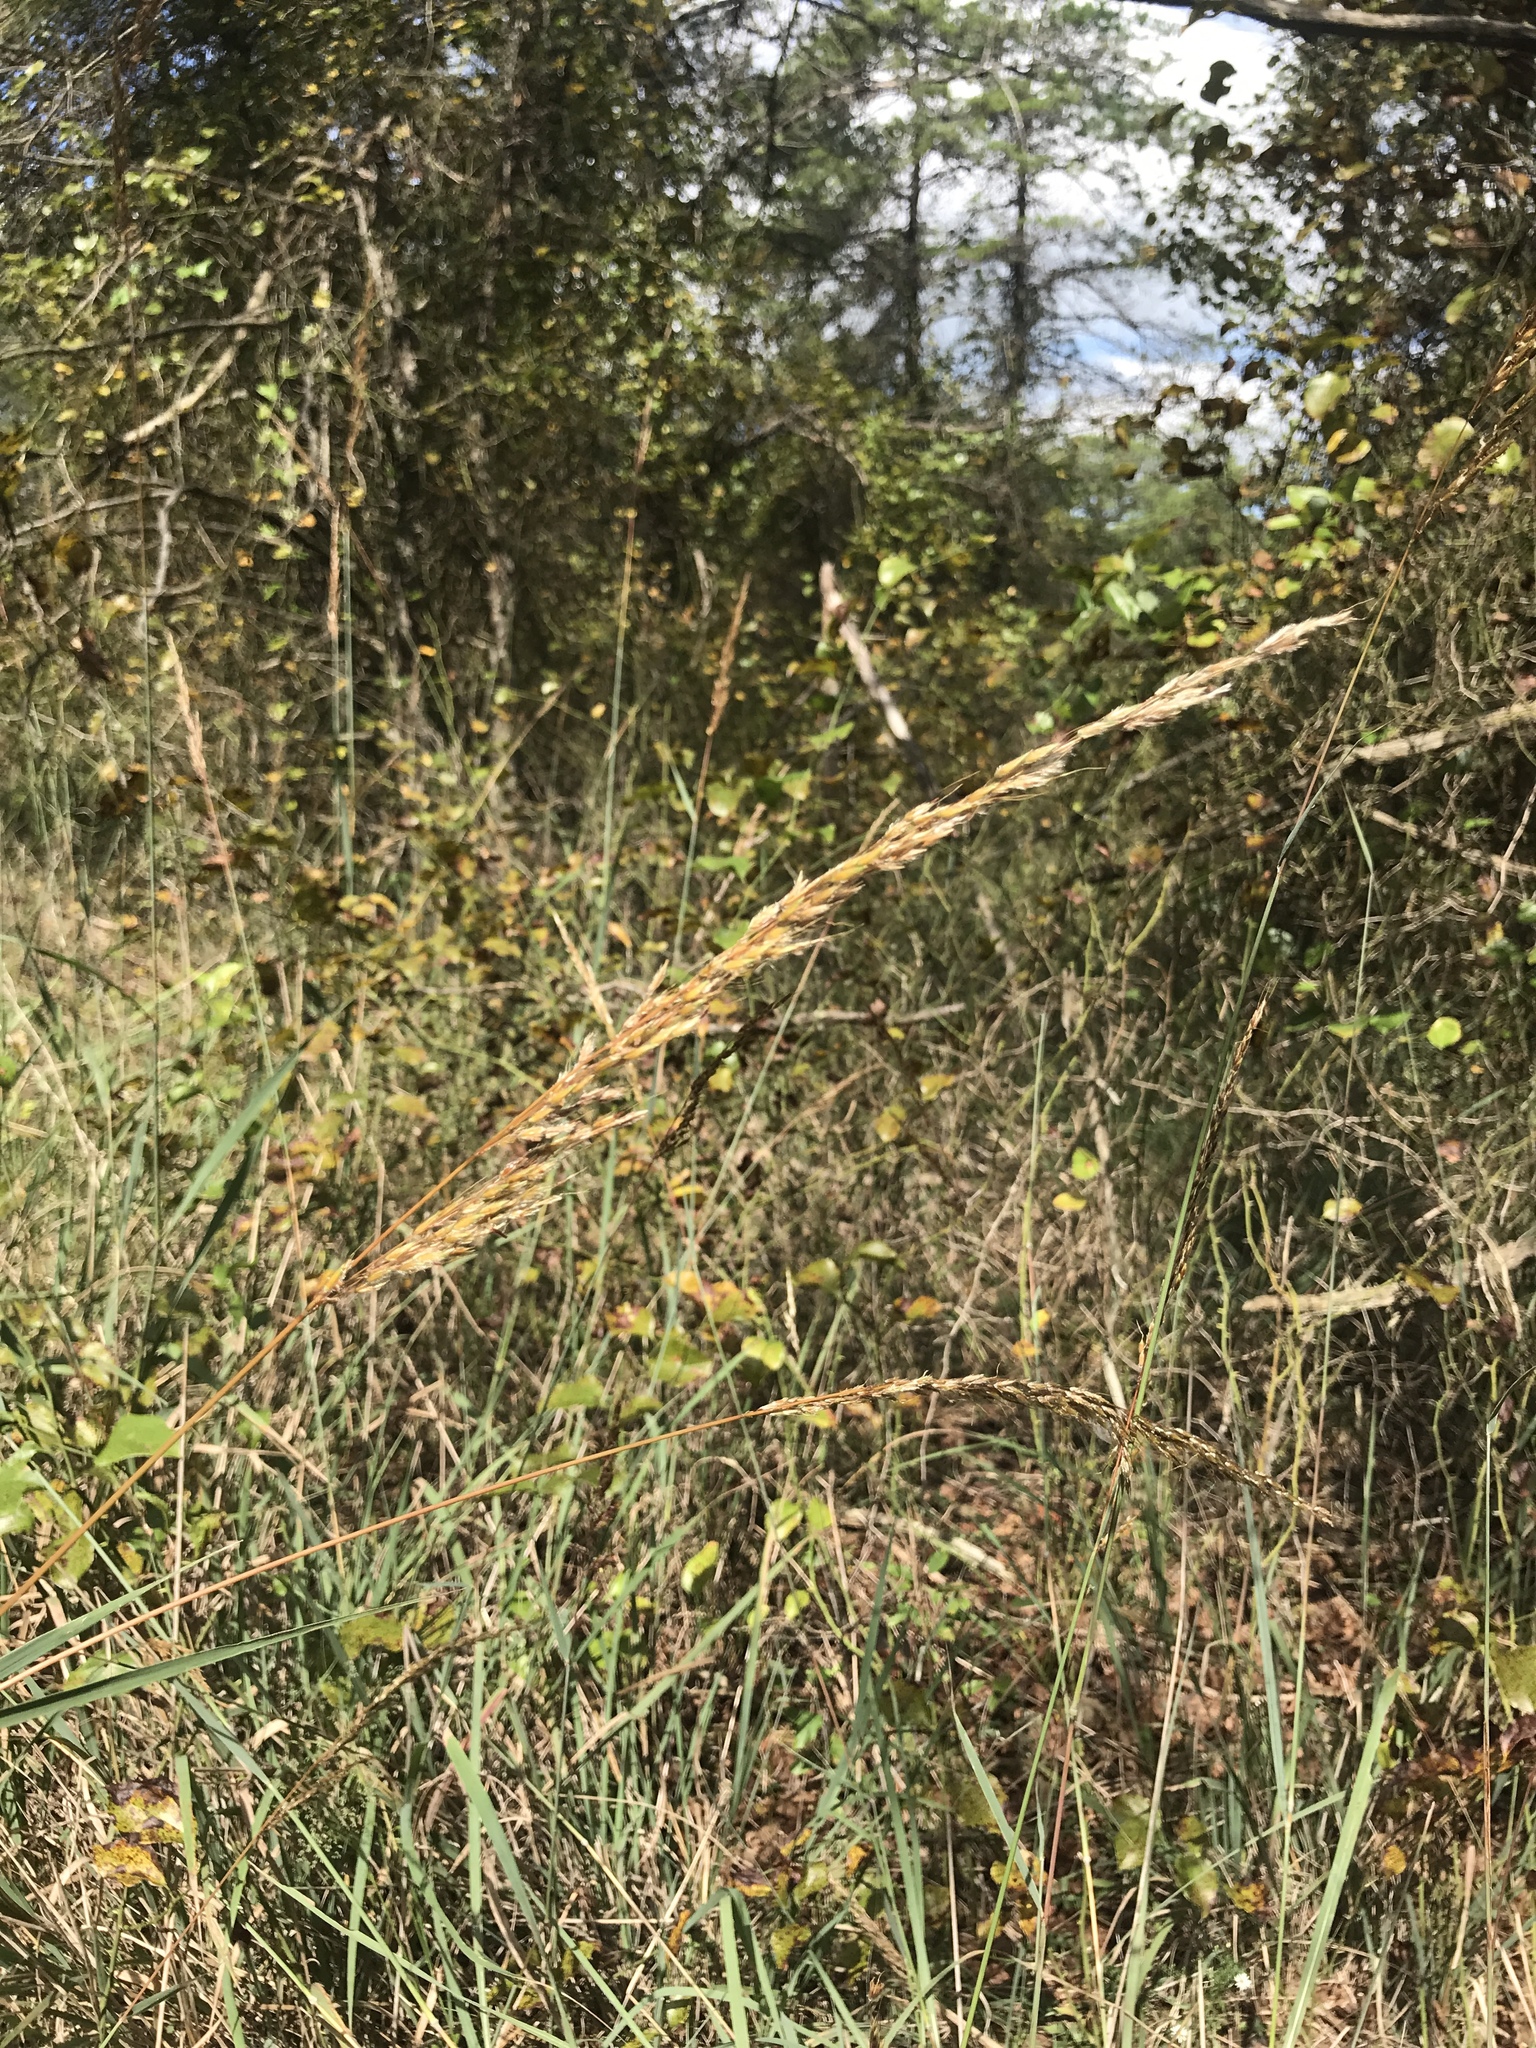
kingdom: Plantae
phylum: Tracheophyta
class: Liliopsida
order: Poales
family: Poaceae
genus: Sorghastrum
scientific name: Sorghastrum nutans
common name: Indian grass
